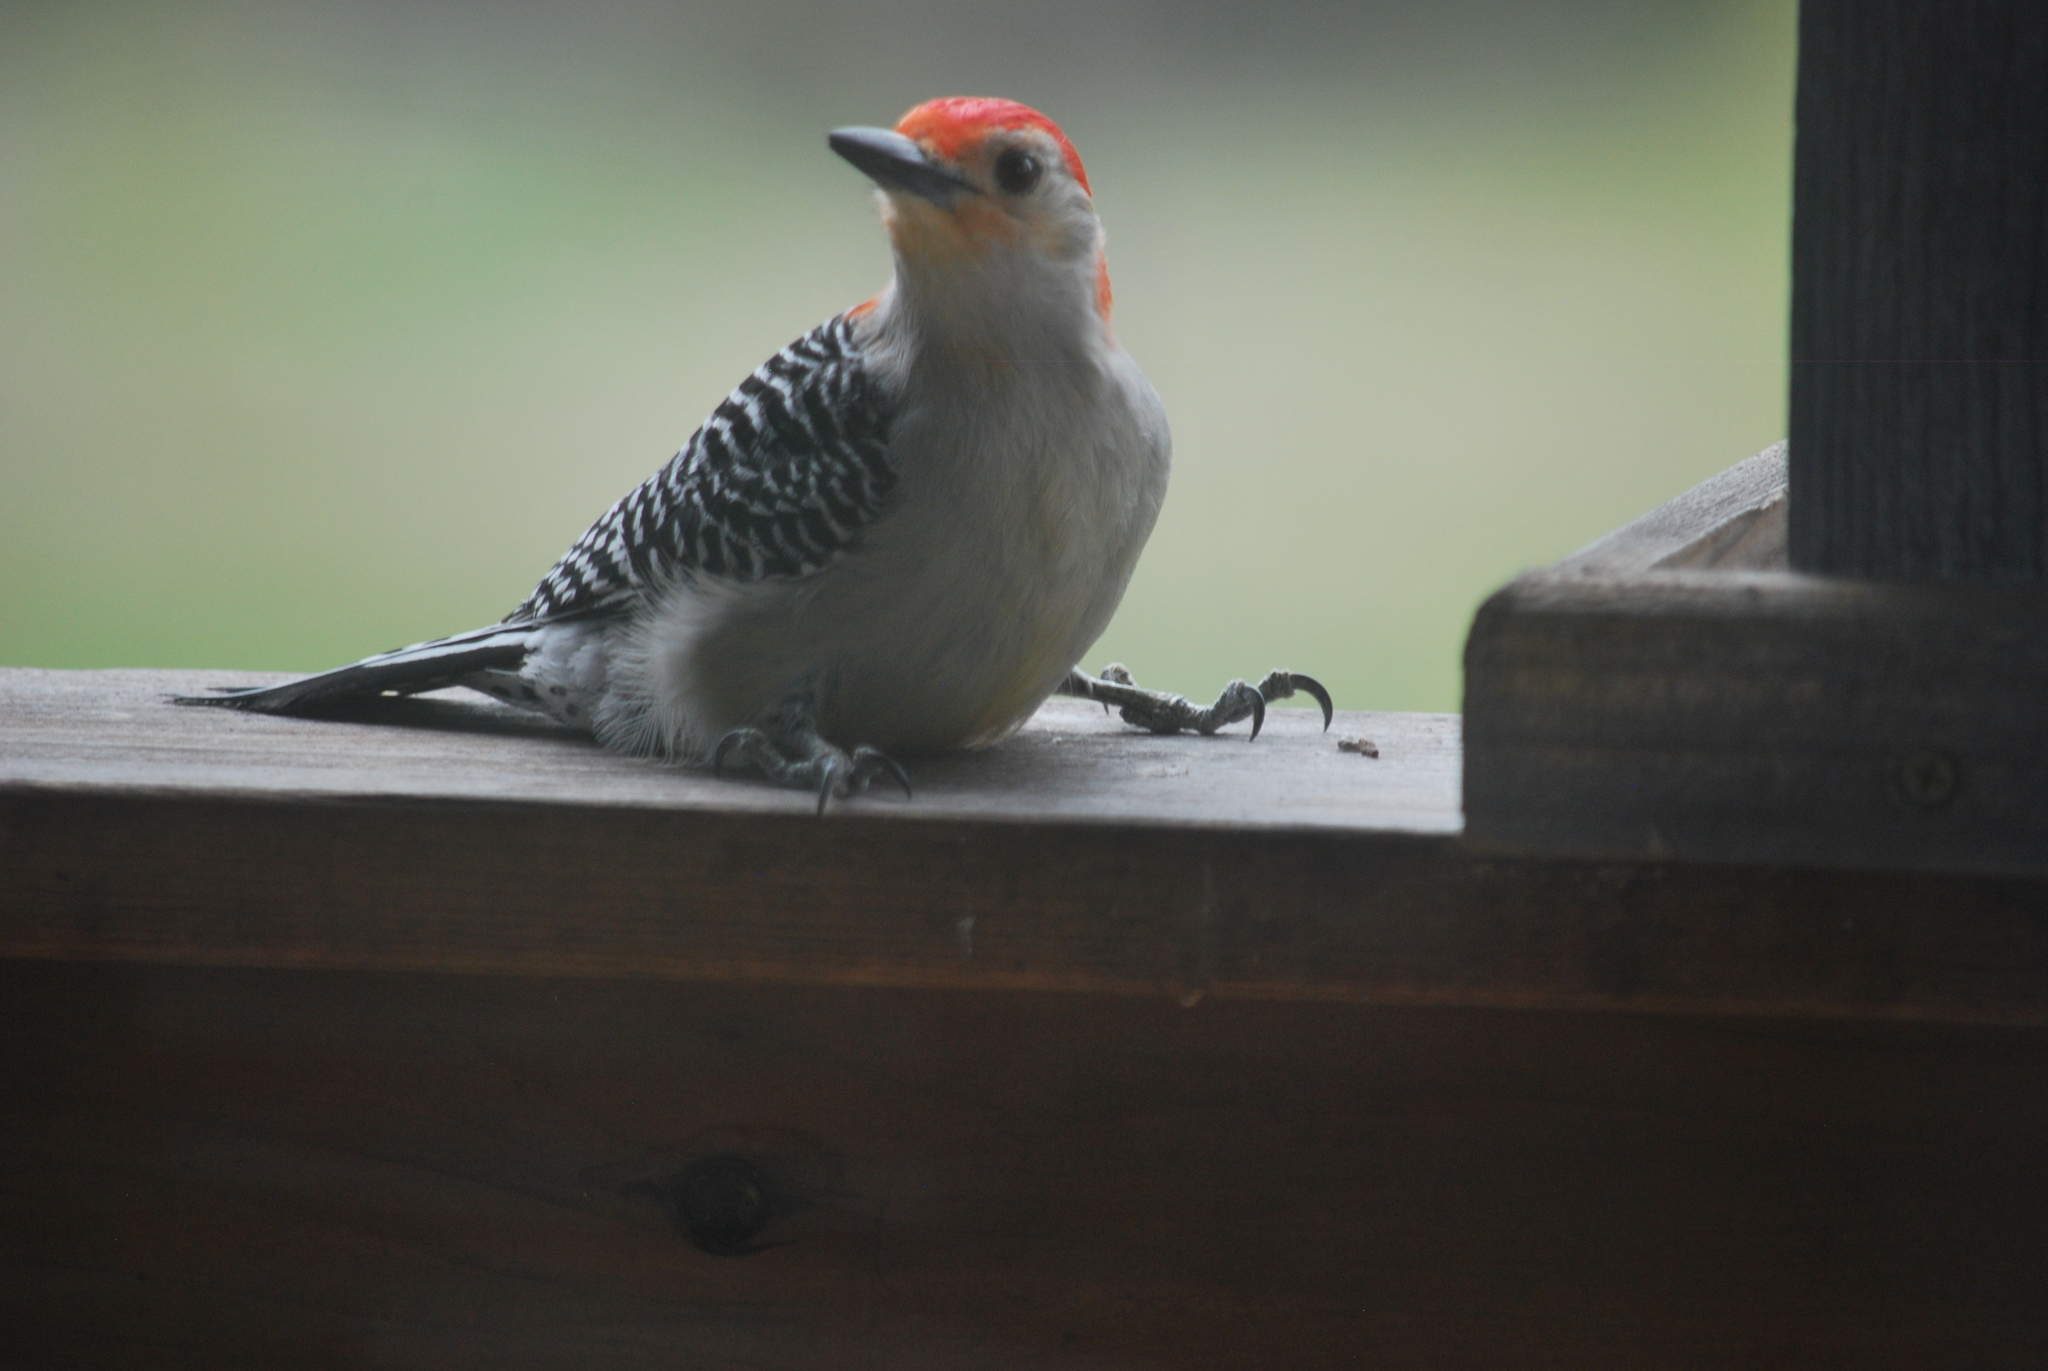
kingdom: Animalia
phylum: Chordata
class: Aves
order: Piciformes
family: Picidae
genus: Melanerpes
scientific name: Melanerpes carolinus
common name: Red-bellied woodpecker
